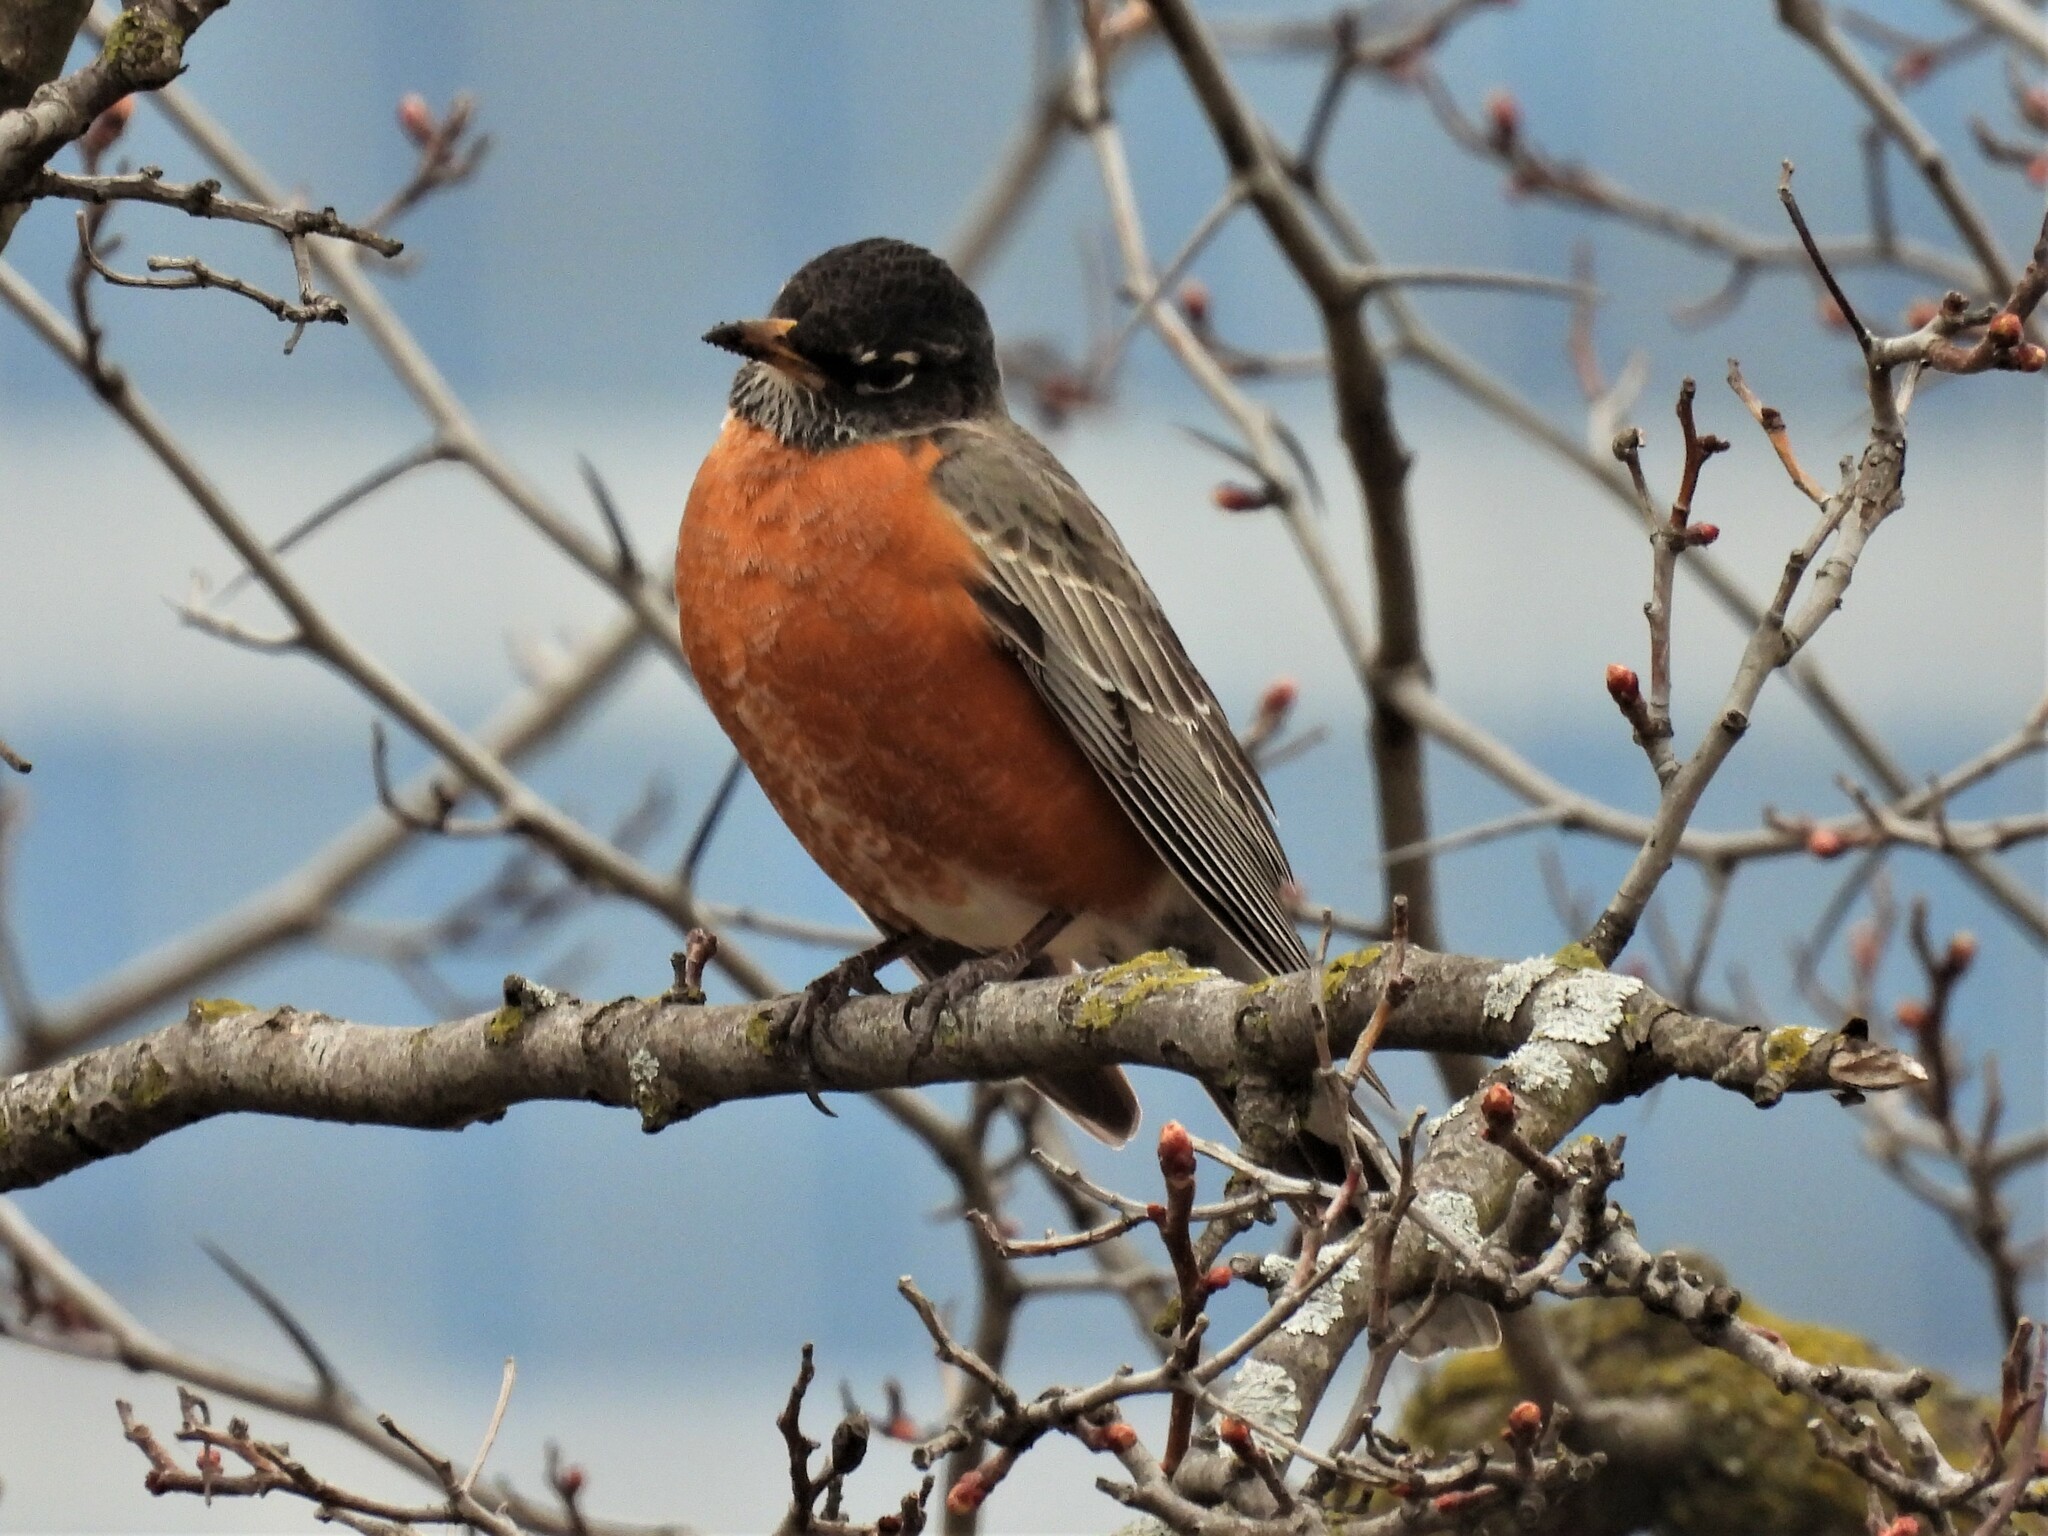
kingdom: Animalia
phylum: Chordata
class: Aves
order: Passeriformes
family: Turdidae
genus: Turdus
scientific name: Turdus migratorius
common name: American robin
